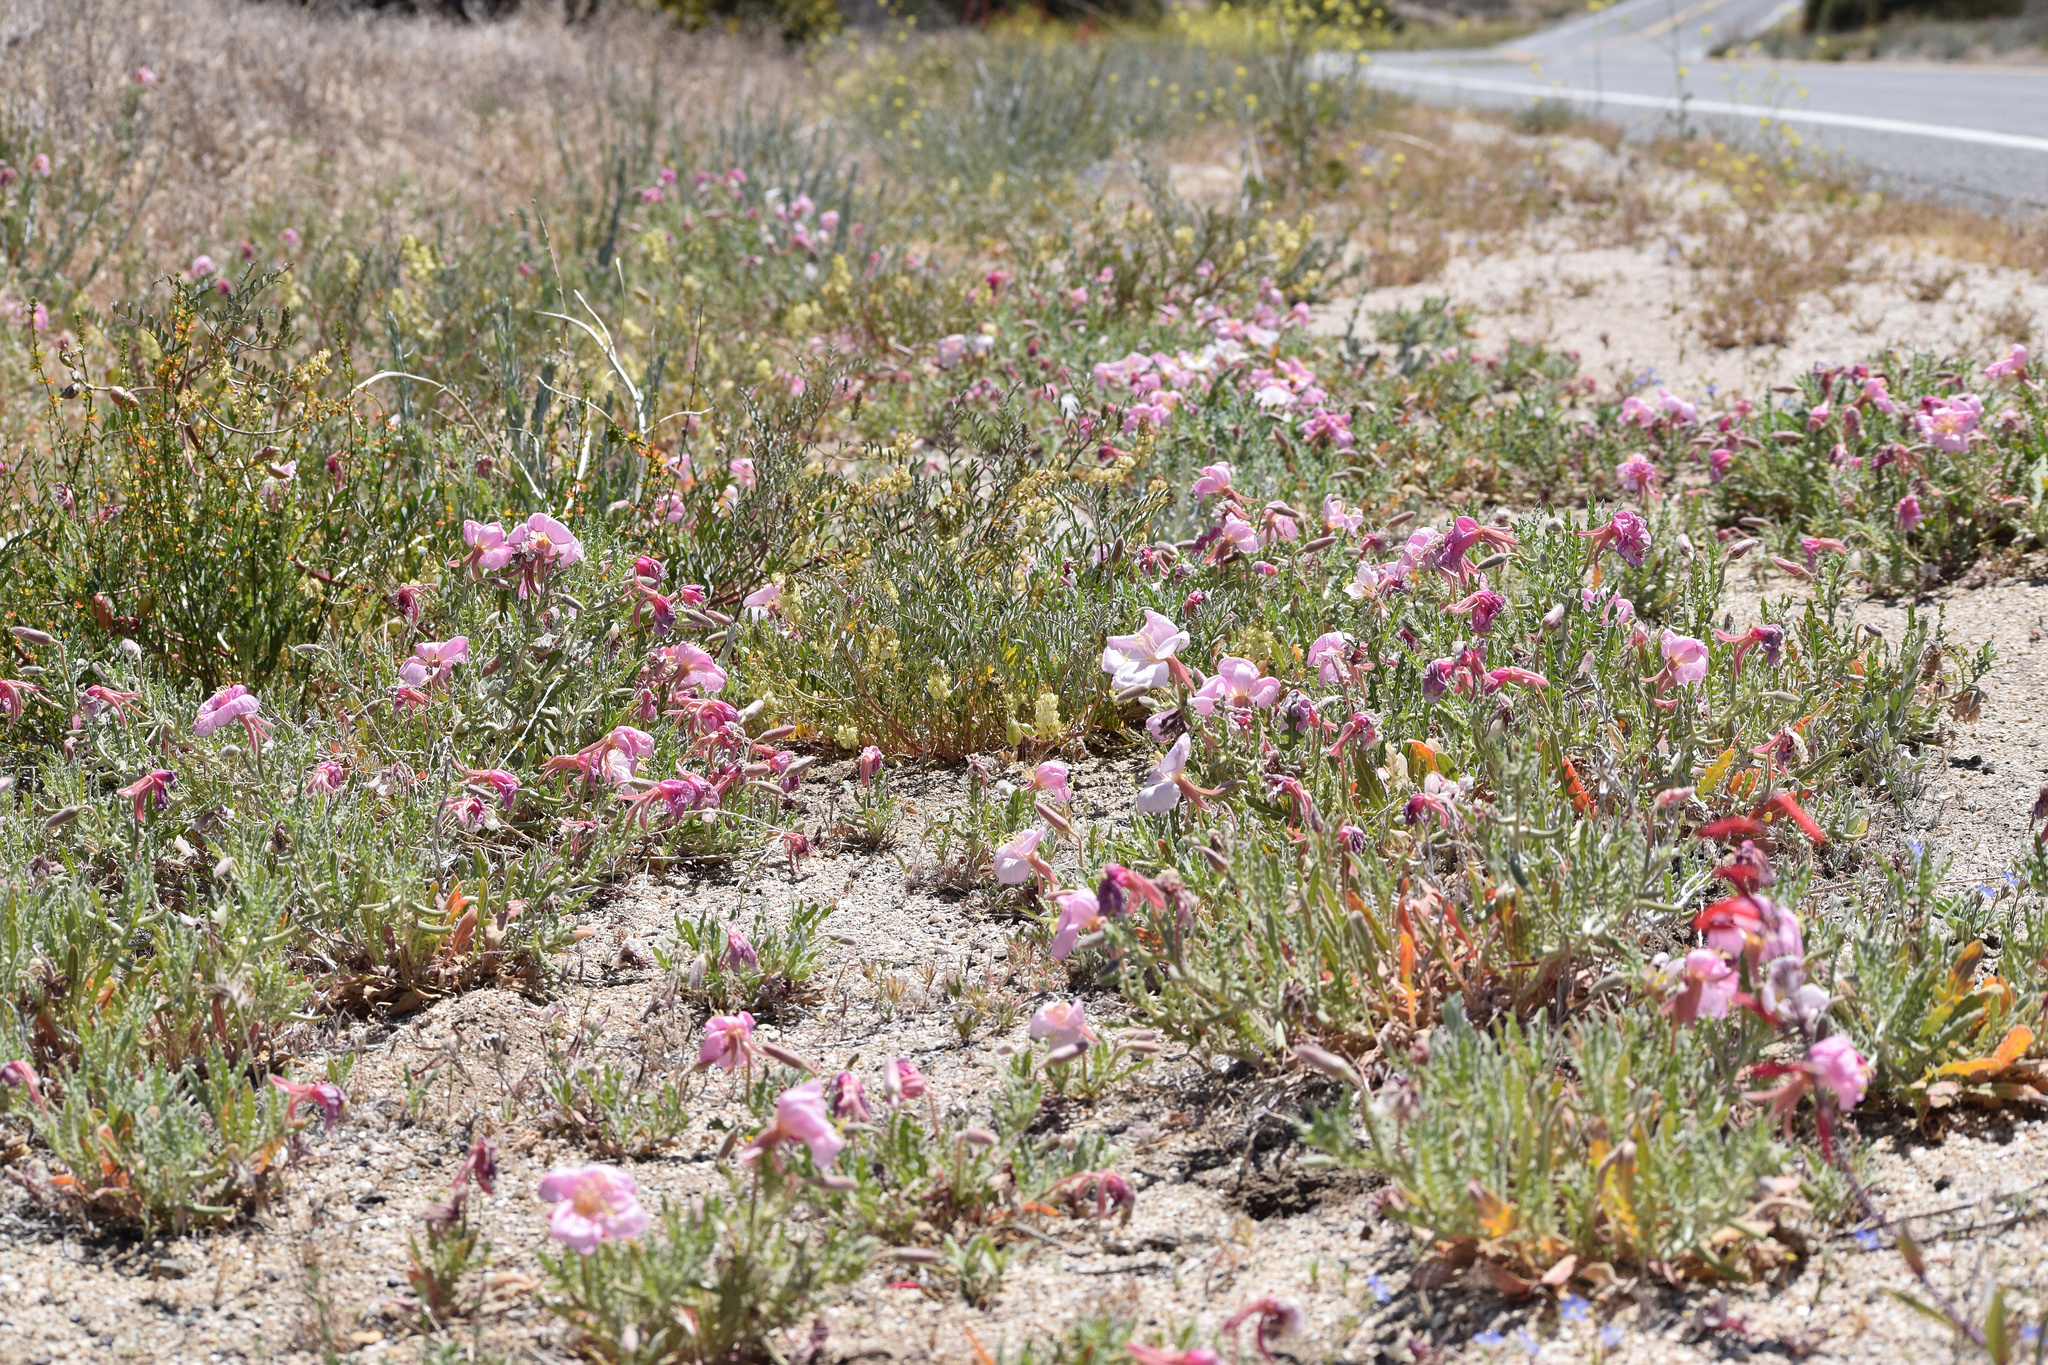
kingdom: Plantae
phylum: Tracheophyta
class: Magnoliopsida
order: Myrtales
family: Onagraceae
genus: Oenothera
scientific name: Oenothera californica
